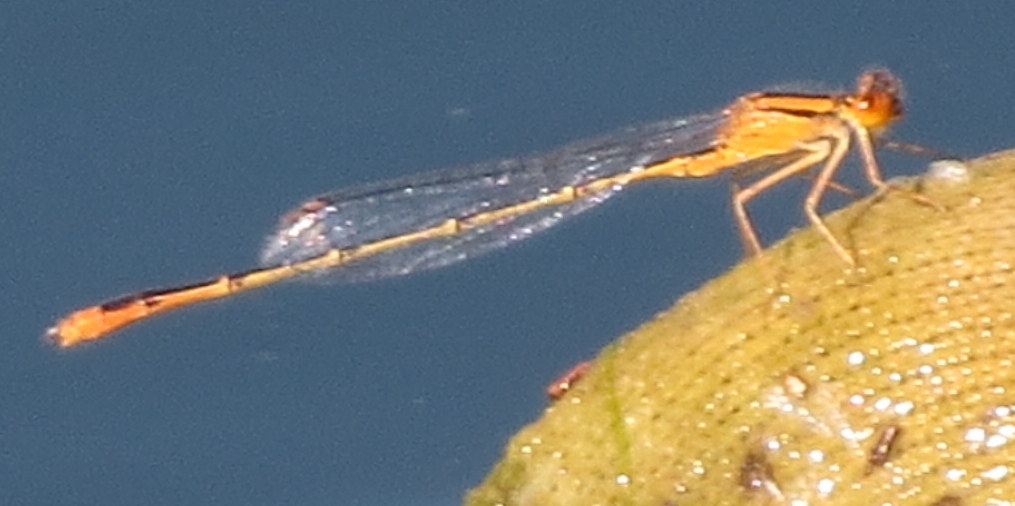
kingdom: Animalia
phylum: Arthropoda
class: Insecta
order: Odonata
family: Coenagrionidae
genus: Enallagma
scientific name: Enallagma signatum
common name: Orange bluet
